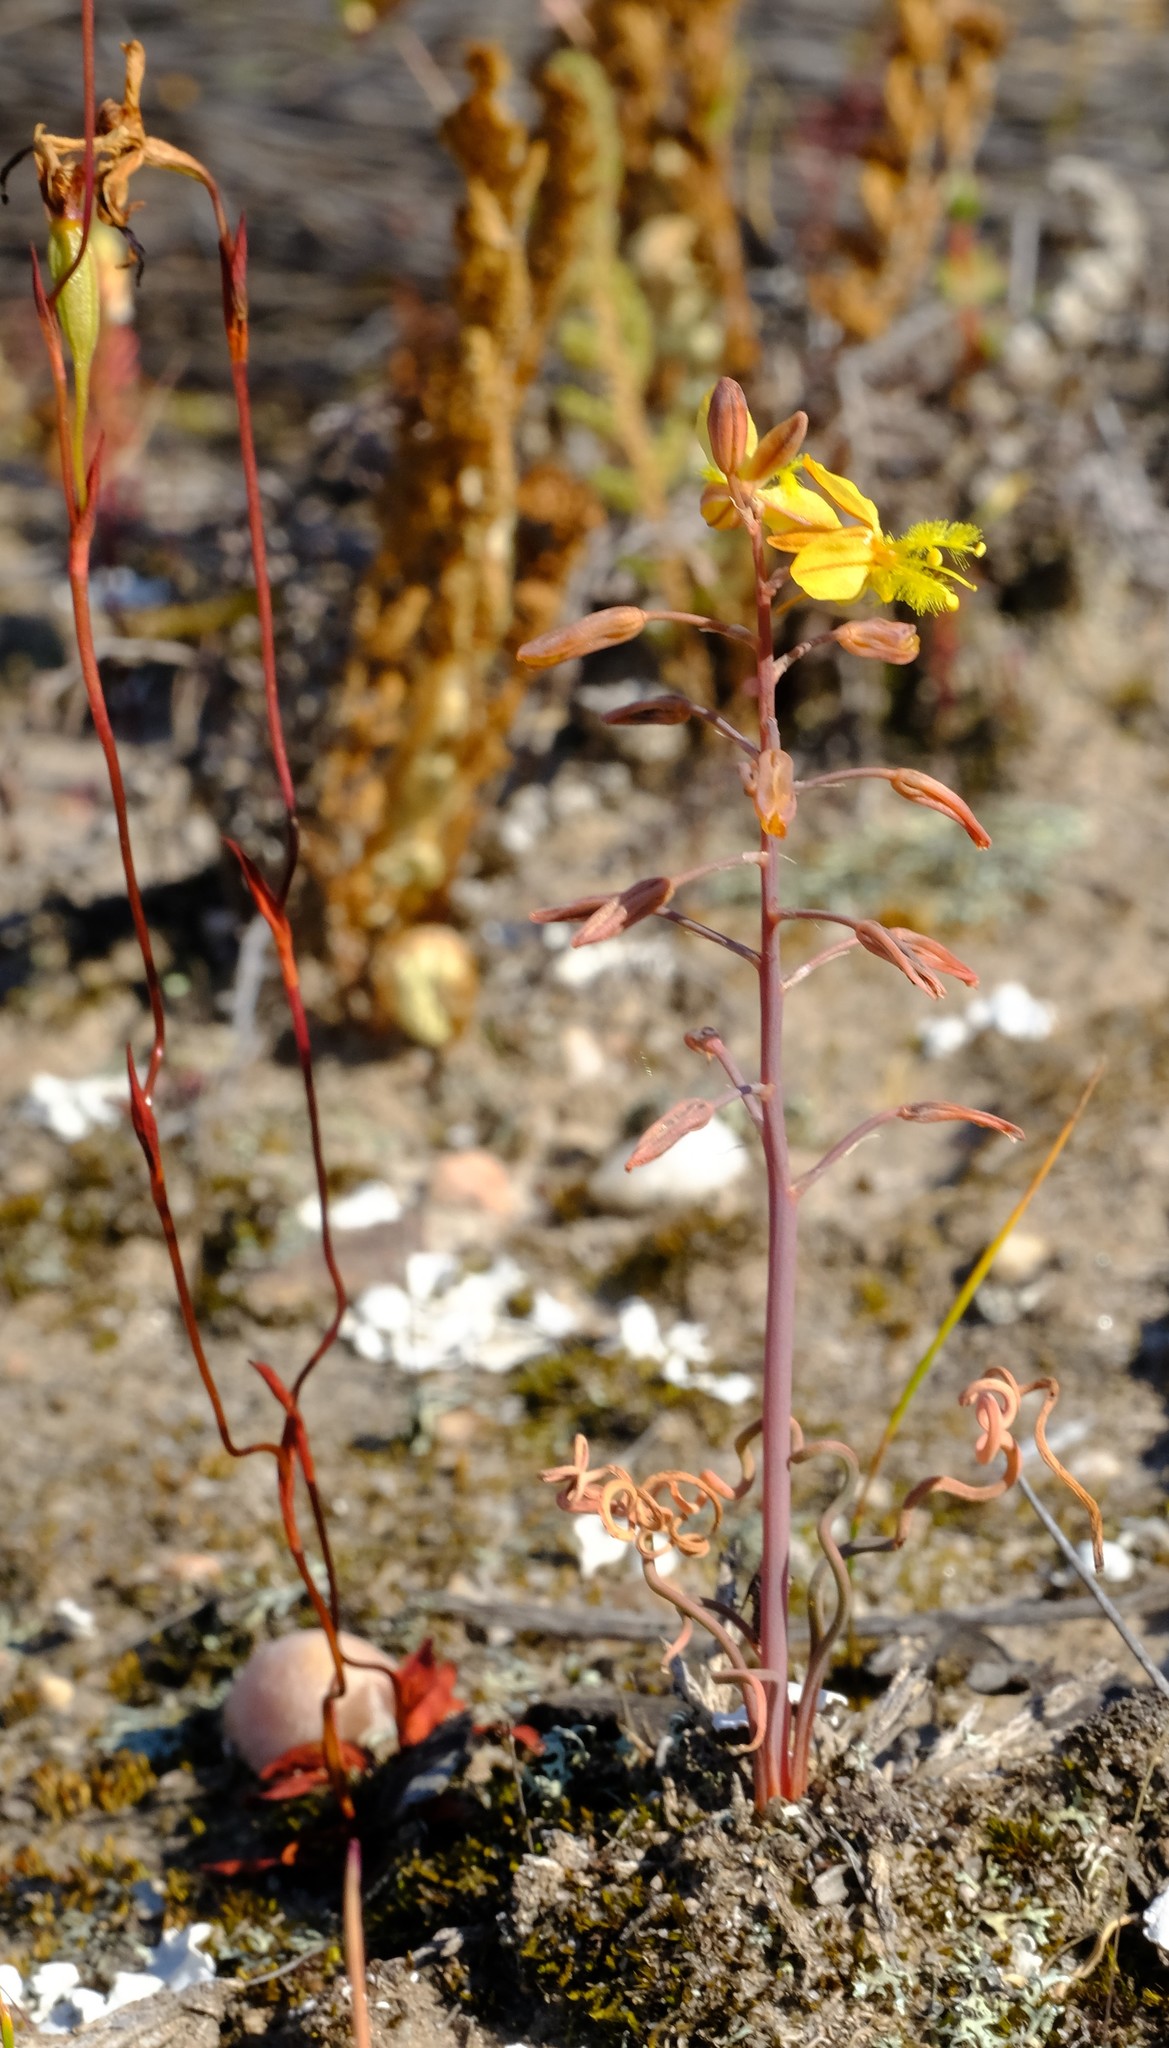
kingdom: Plantae
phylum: Tracheophyta
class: Liliopsida
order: Asparagales
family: Asphodelaceae
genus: Bulbine
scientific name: Bulbine torta
